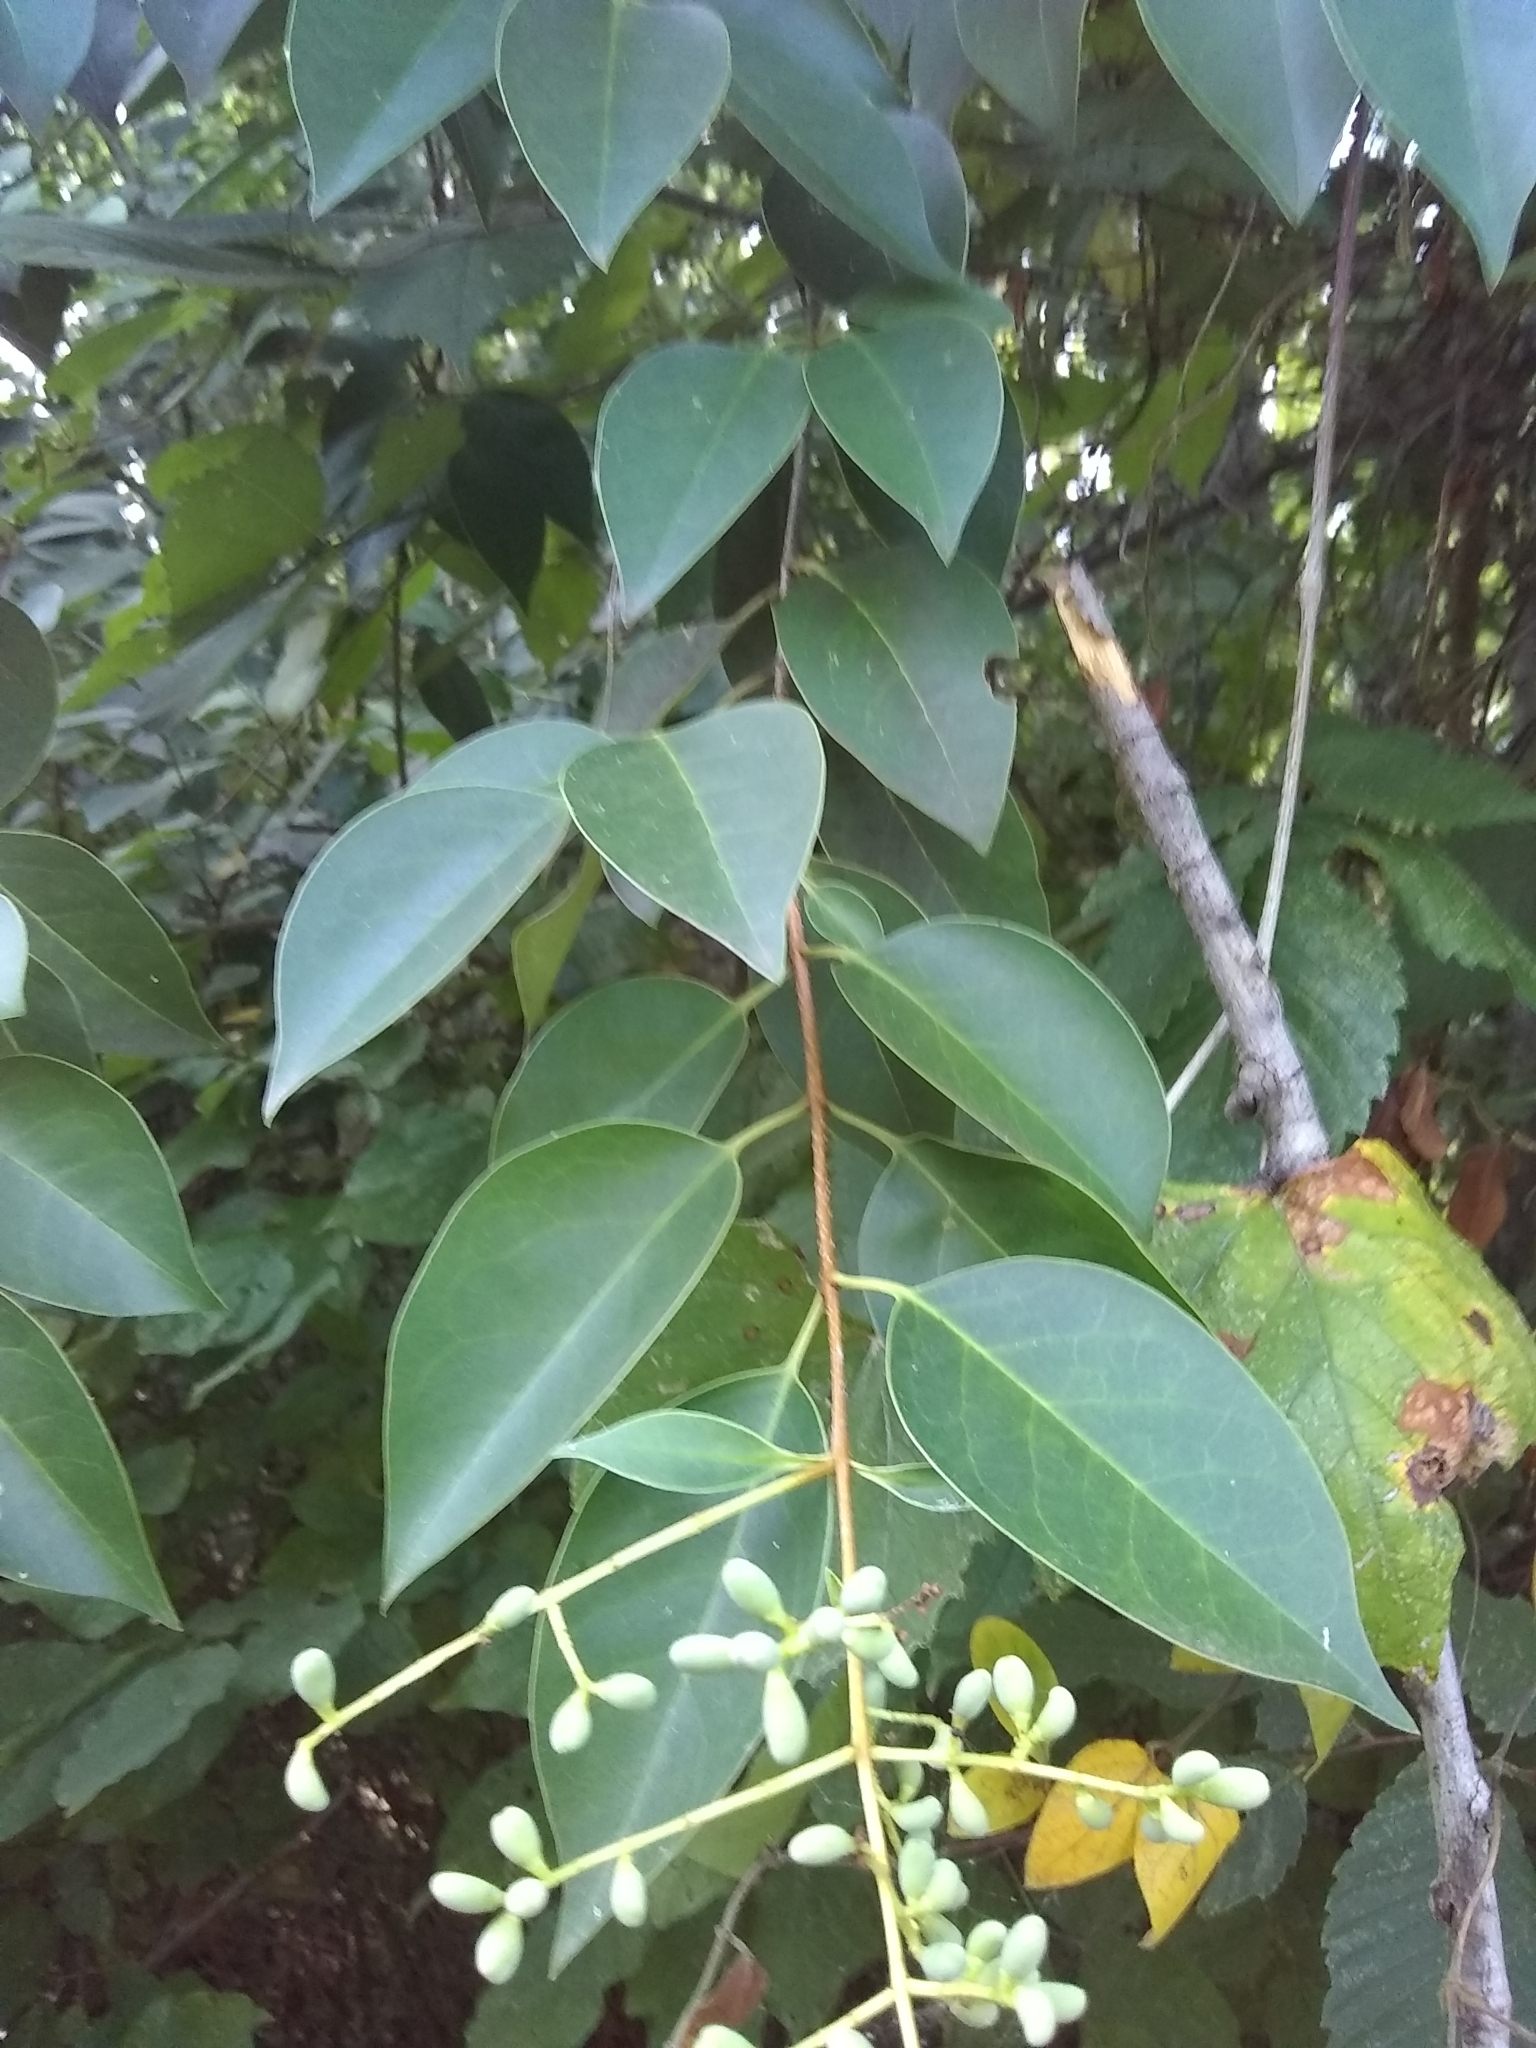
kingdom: Plantae
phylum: Tracheophyta
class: Magnoliopsida
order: Lamiales
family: Oleaceae
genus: Ligustrum
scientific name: Ligustrum lucidum
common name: Glossy privet
